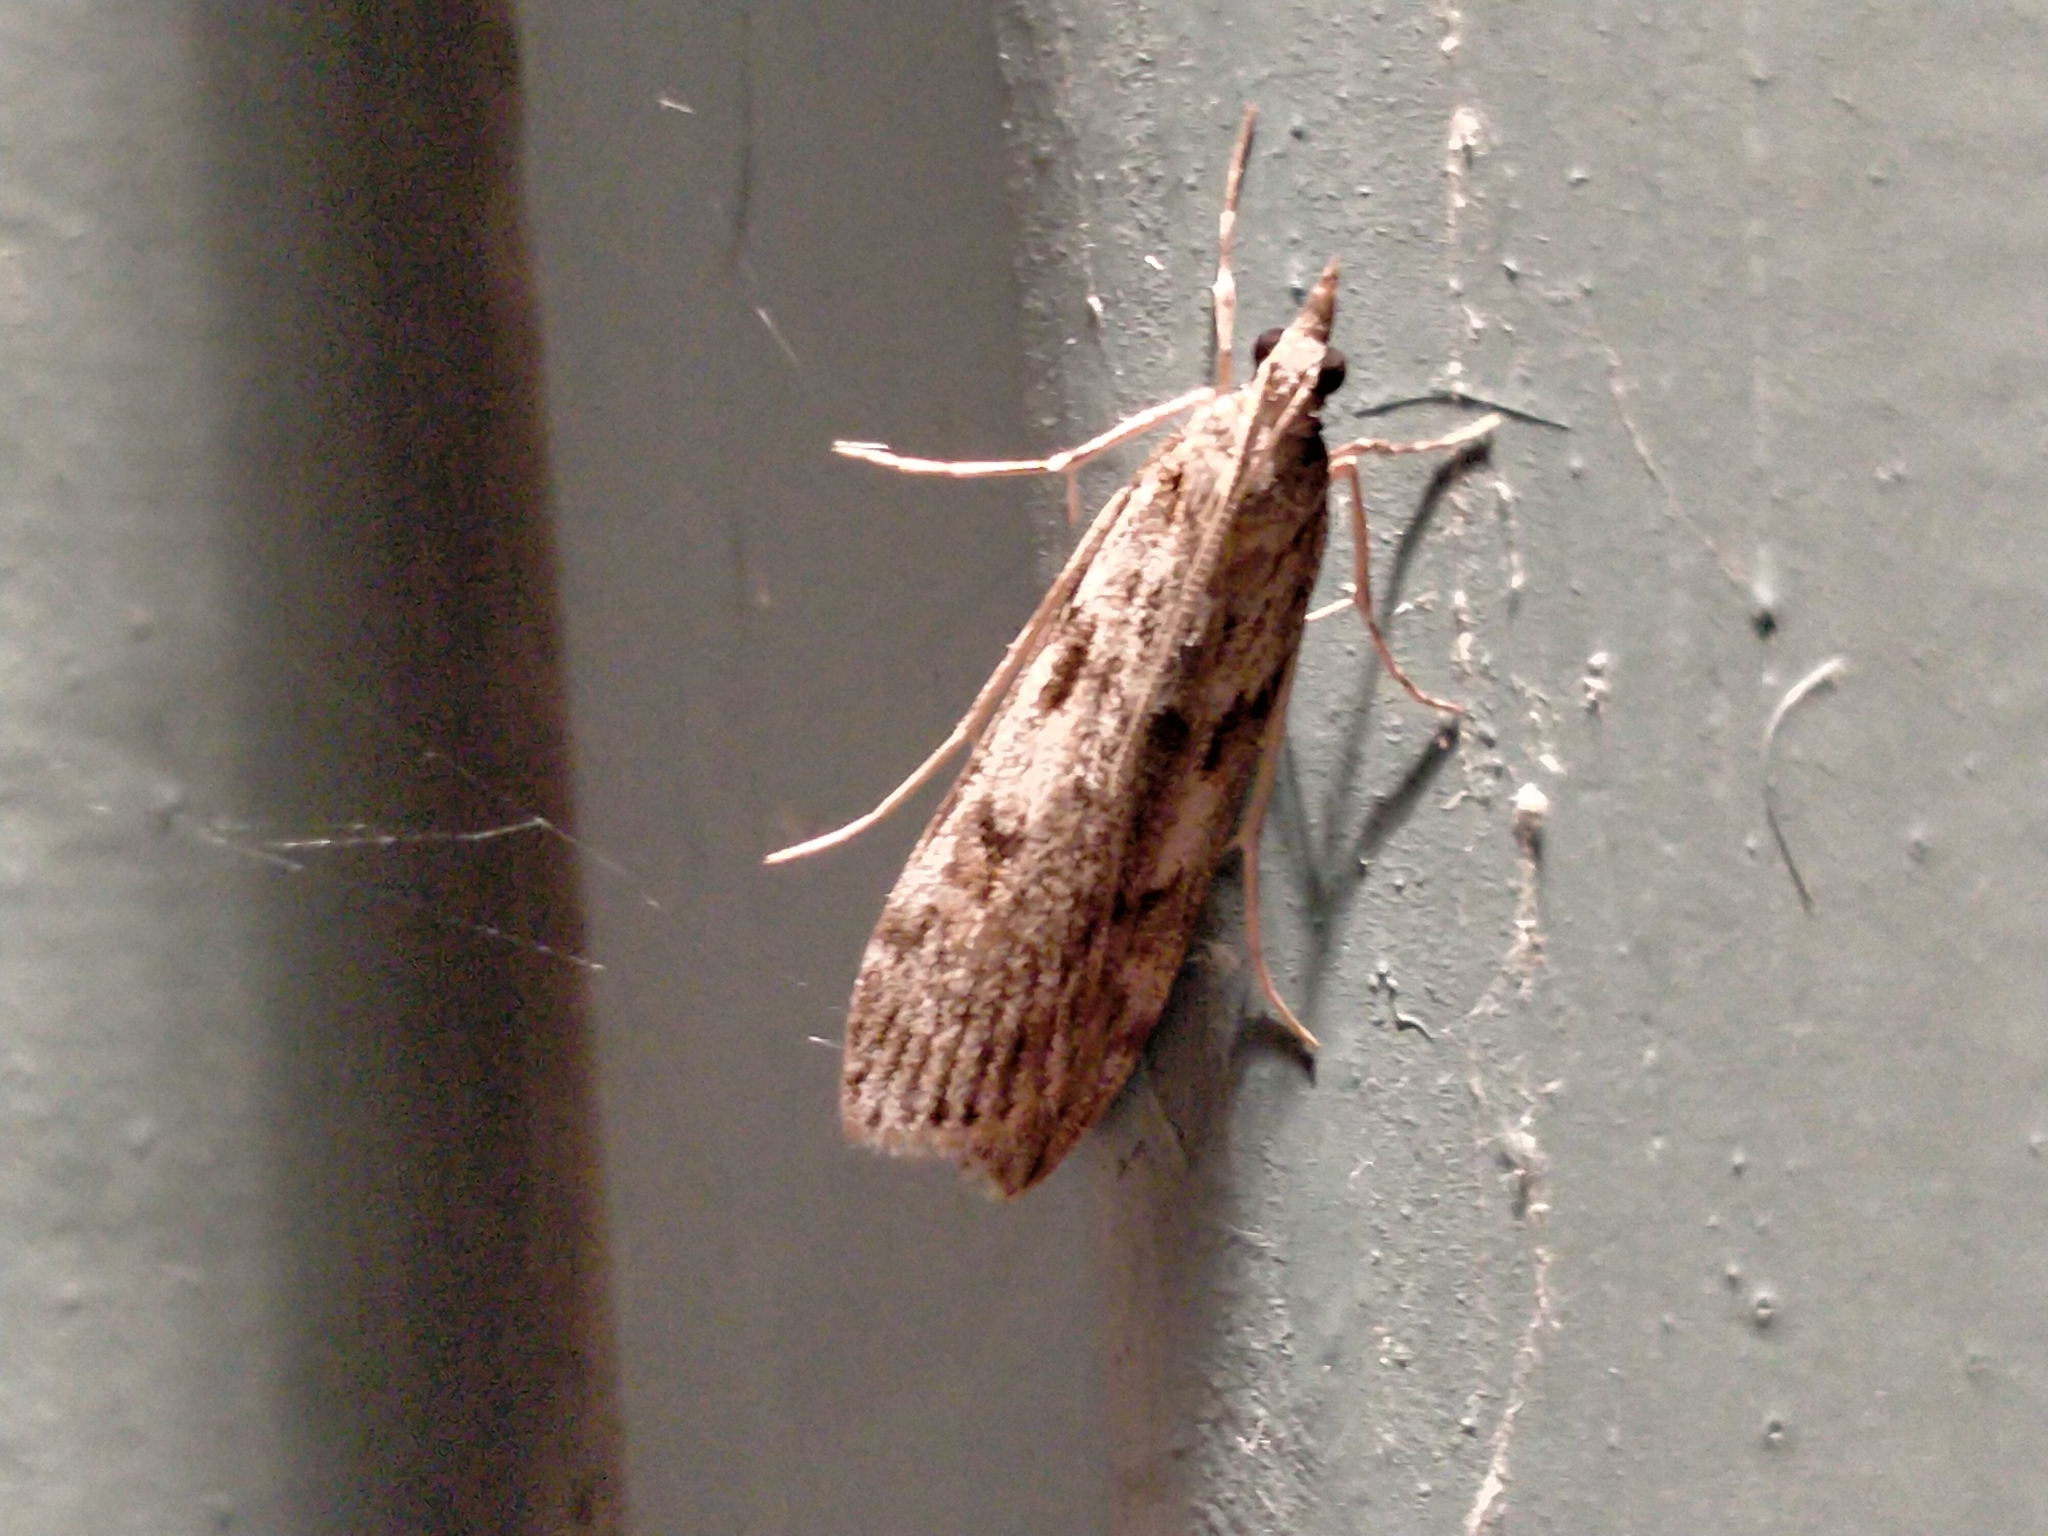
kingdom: Animalia
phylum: Arthropoda
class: Insecta
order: Lepidoptera
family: Crambidae
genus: Scoparia
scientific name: Scoparia halopis
